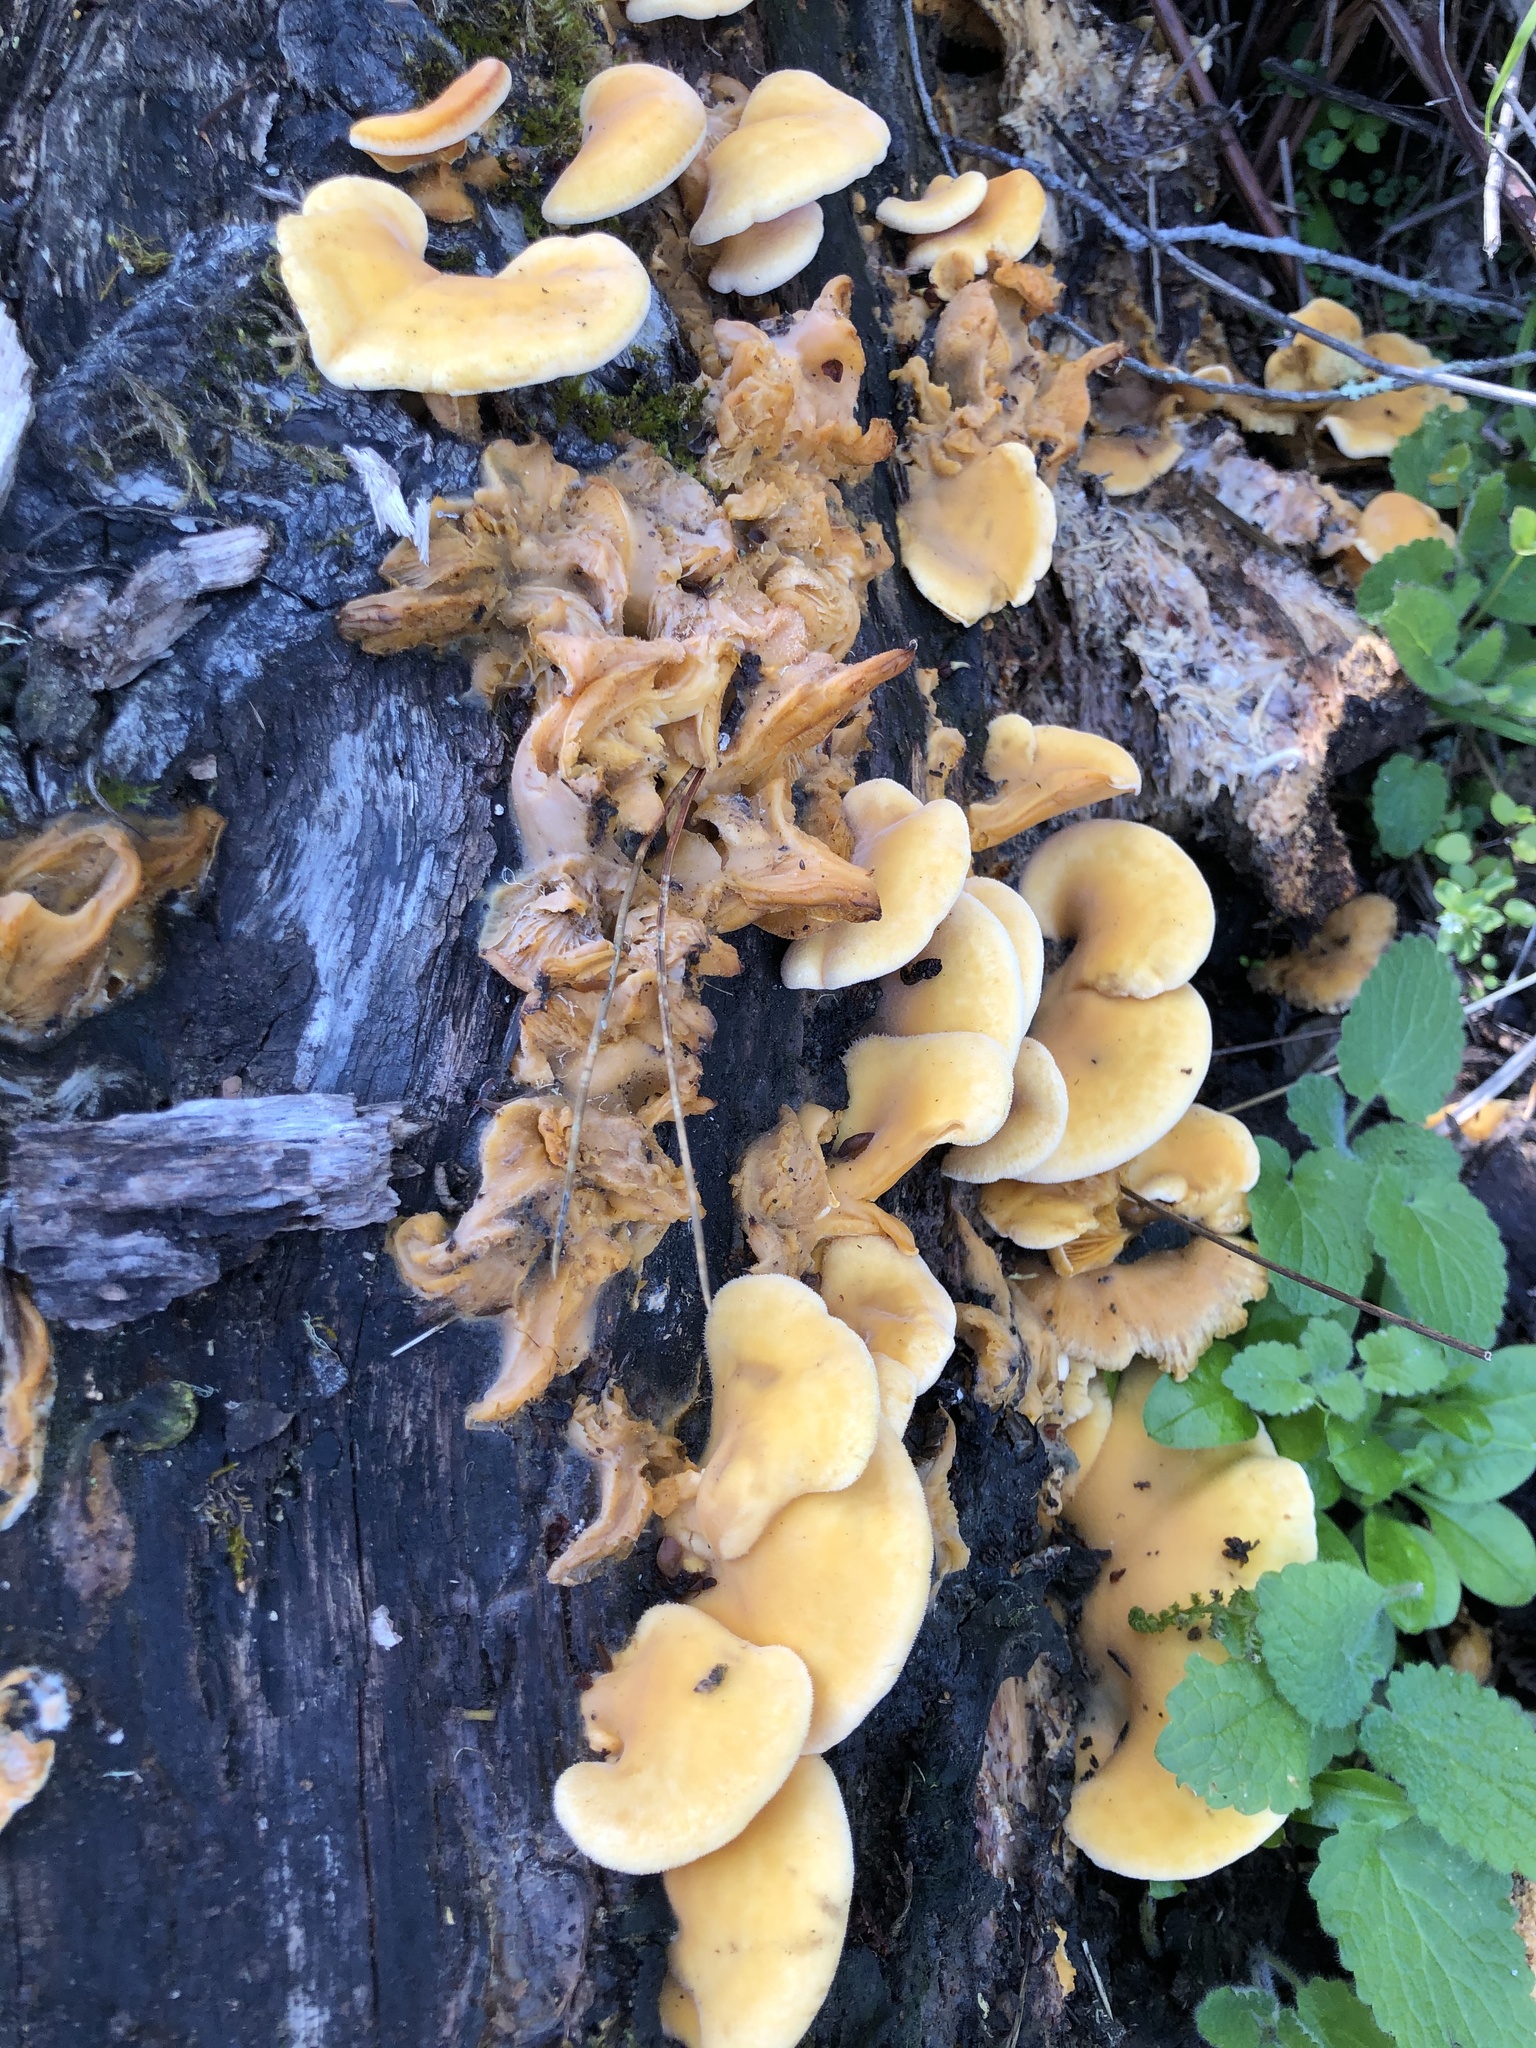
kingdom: Fungi
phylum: Basidiomycota
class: Agaricomycetes
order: Agaricales
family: Phyllotopsidaceae
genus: Phyllotopsis
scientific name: Phyllotopsis nidulans
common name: Orange mock oyster
